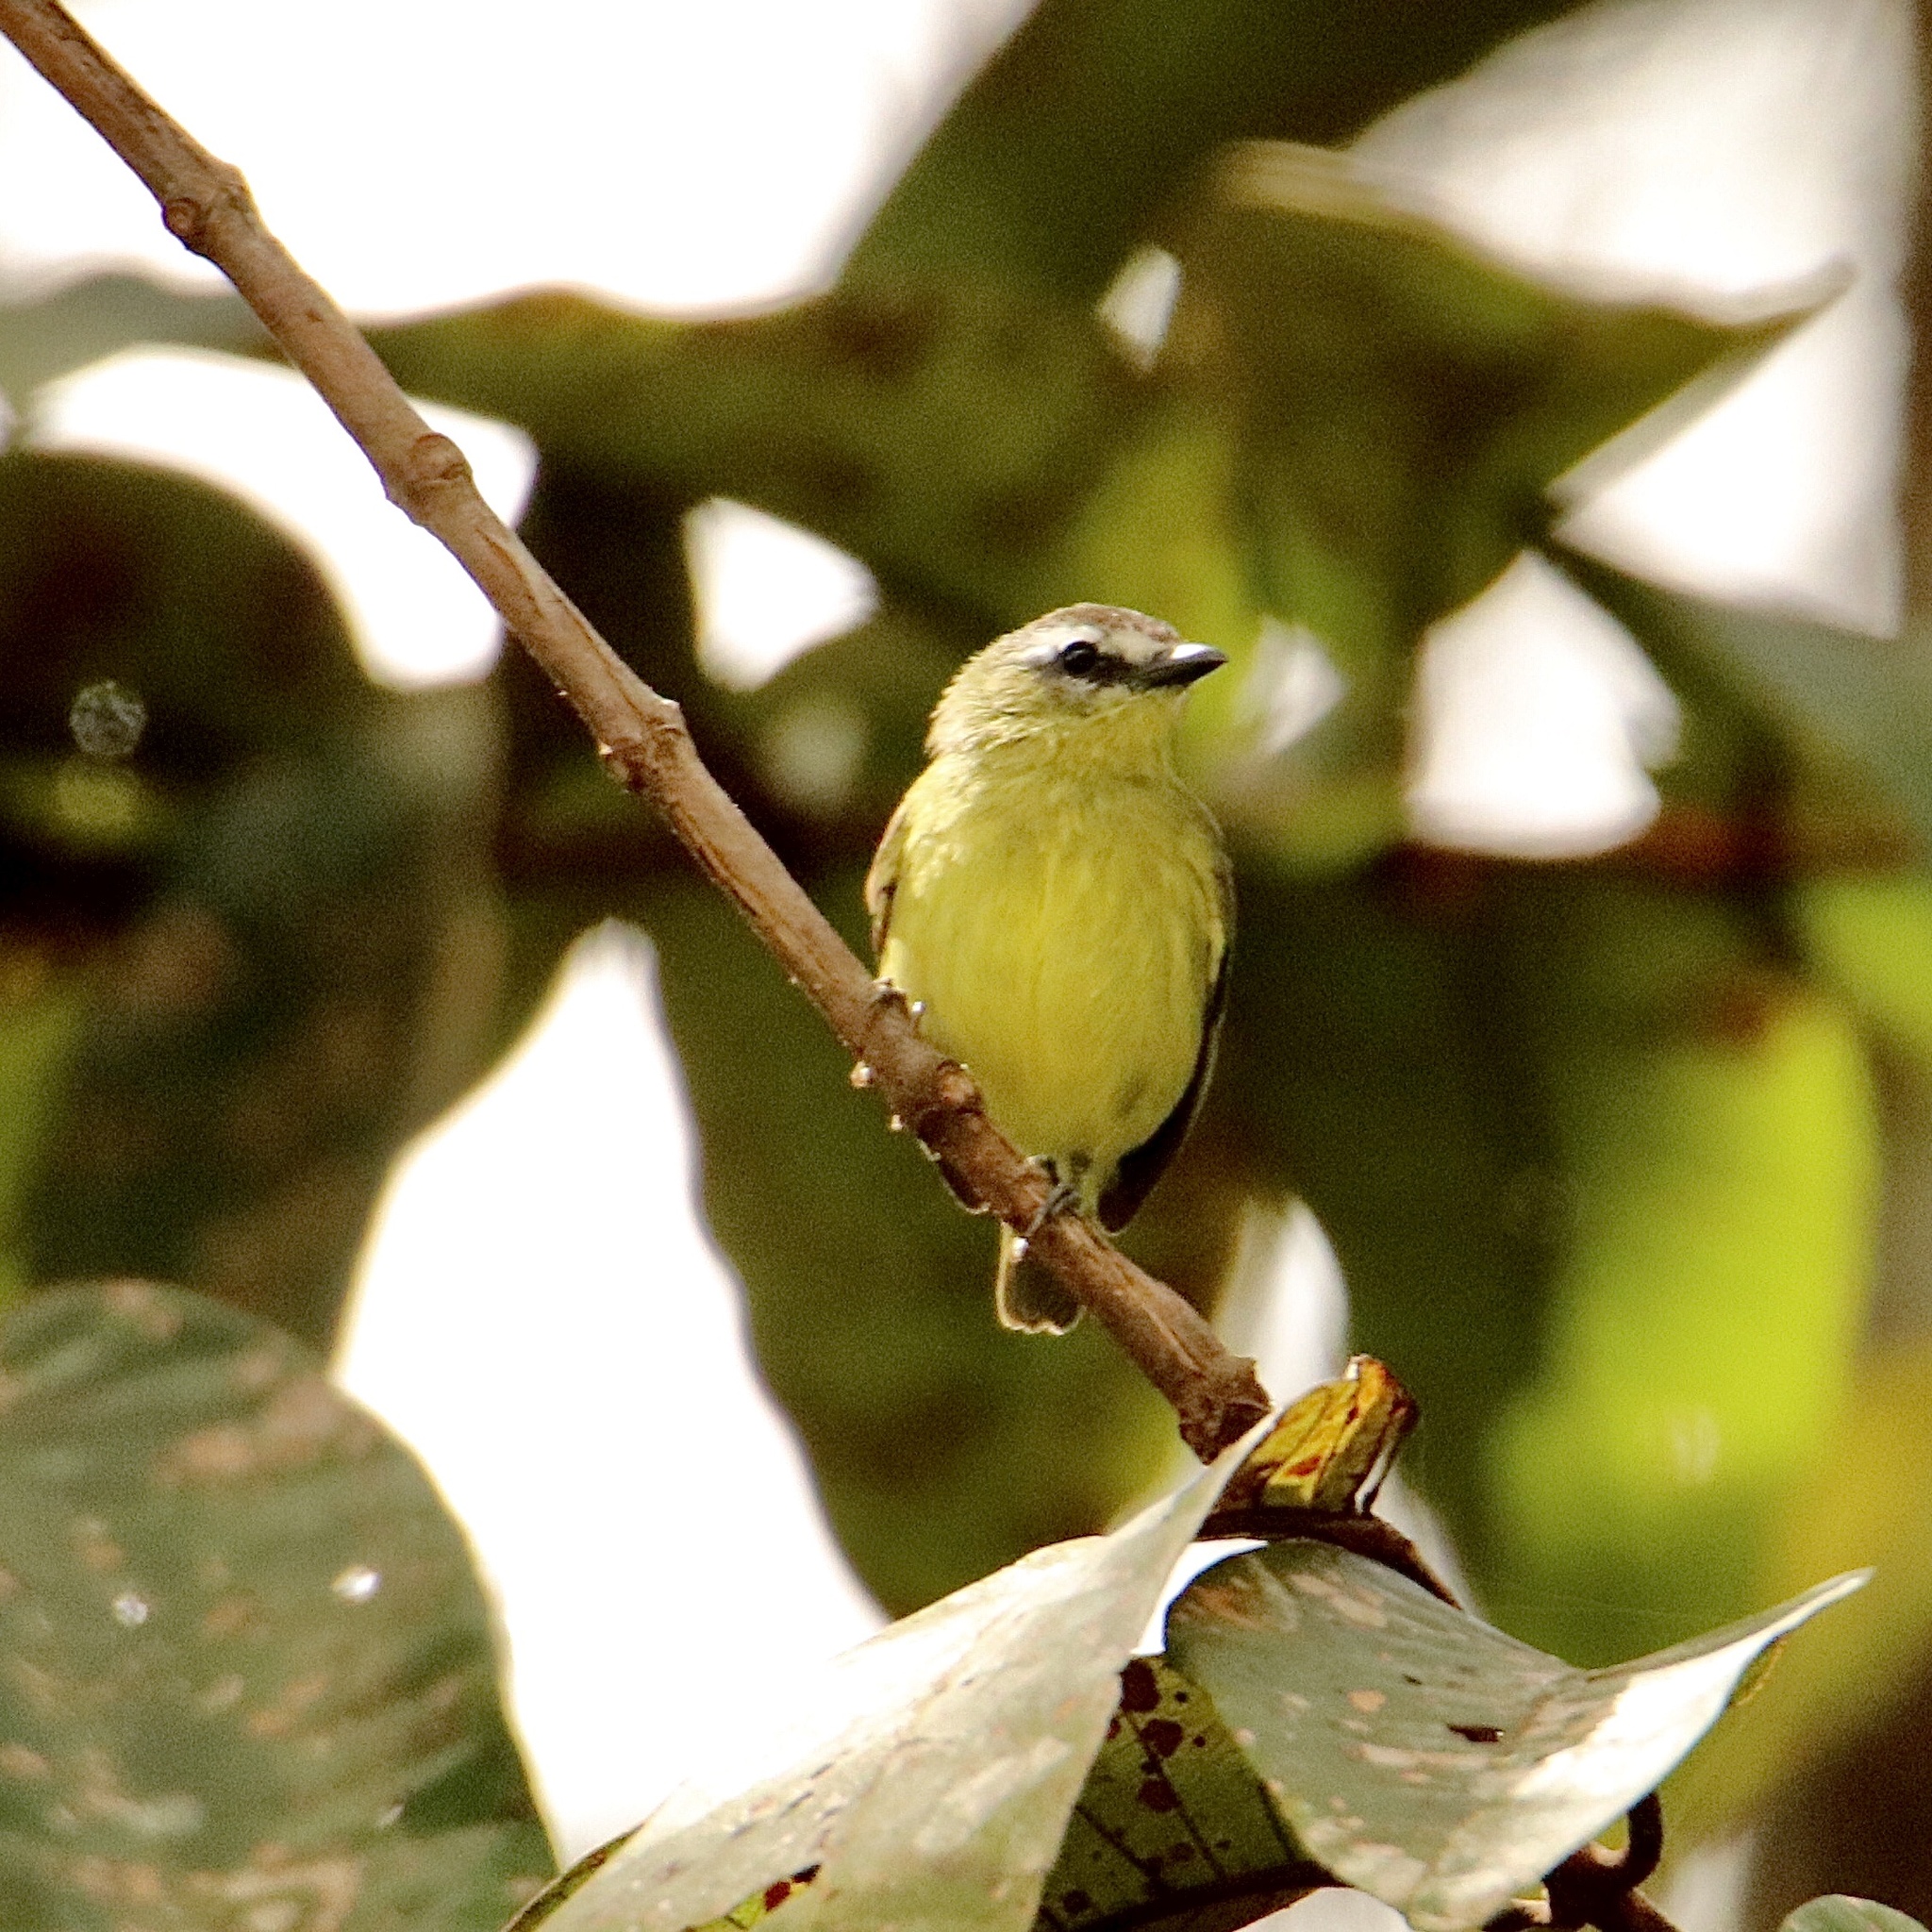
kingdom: Animalia
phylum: Chordata
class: Aves
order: Passeriformes
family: Tyrannidae
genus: Ornithion
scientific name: Ornithion brunneicapillus
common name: Brown-capped tyrannulet
